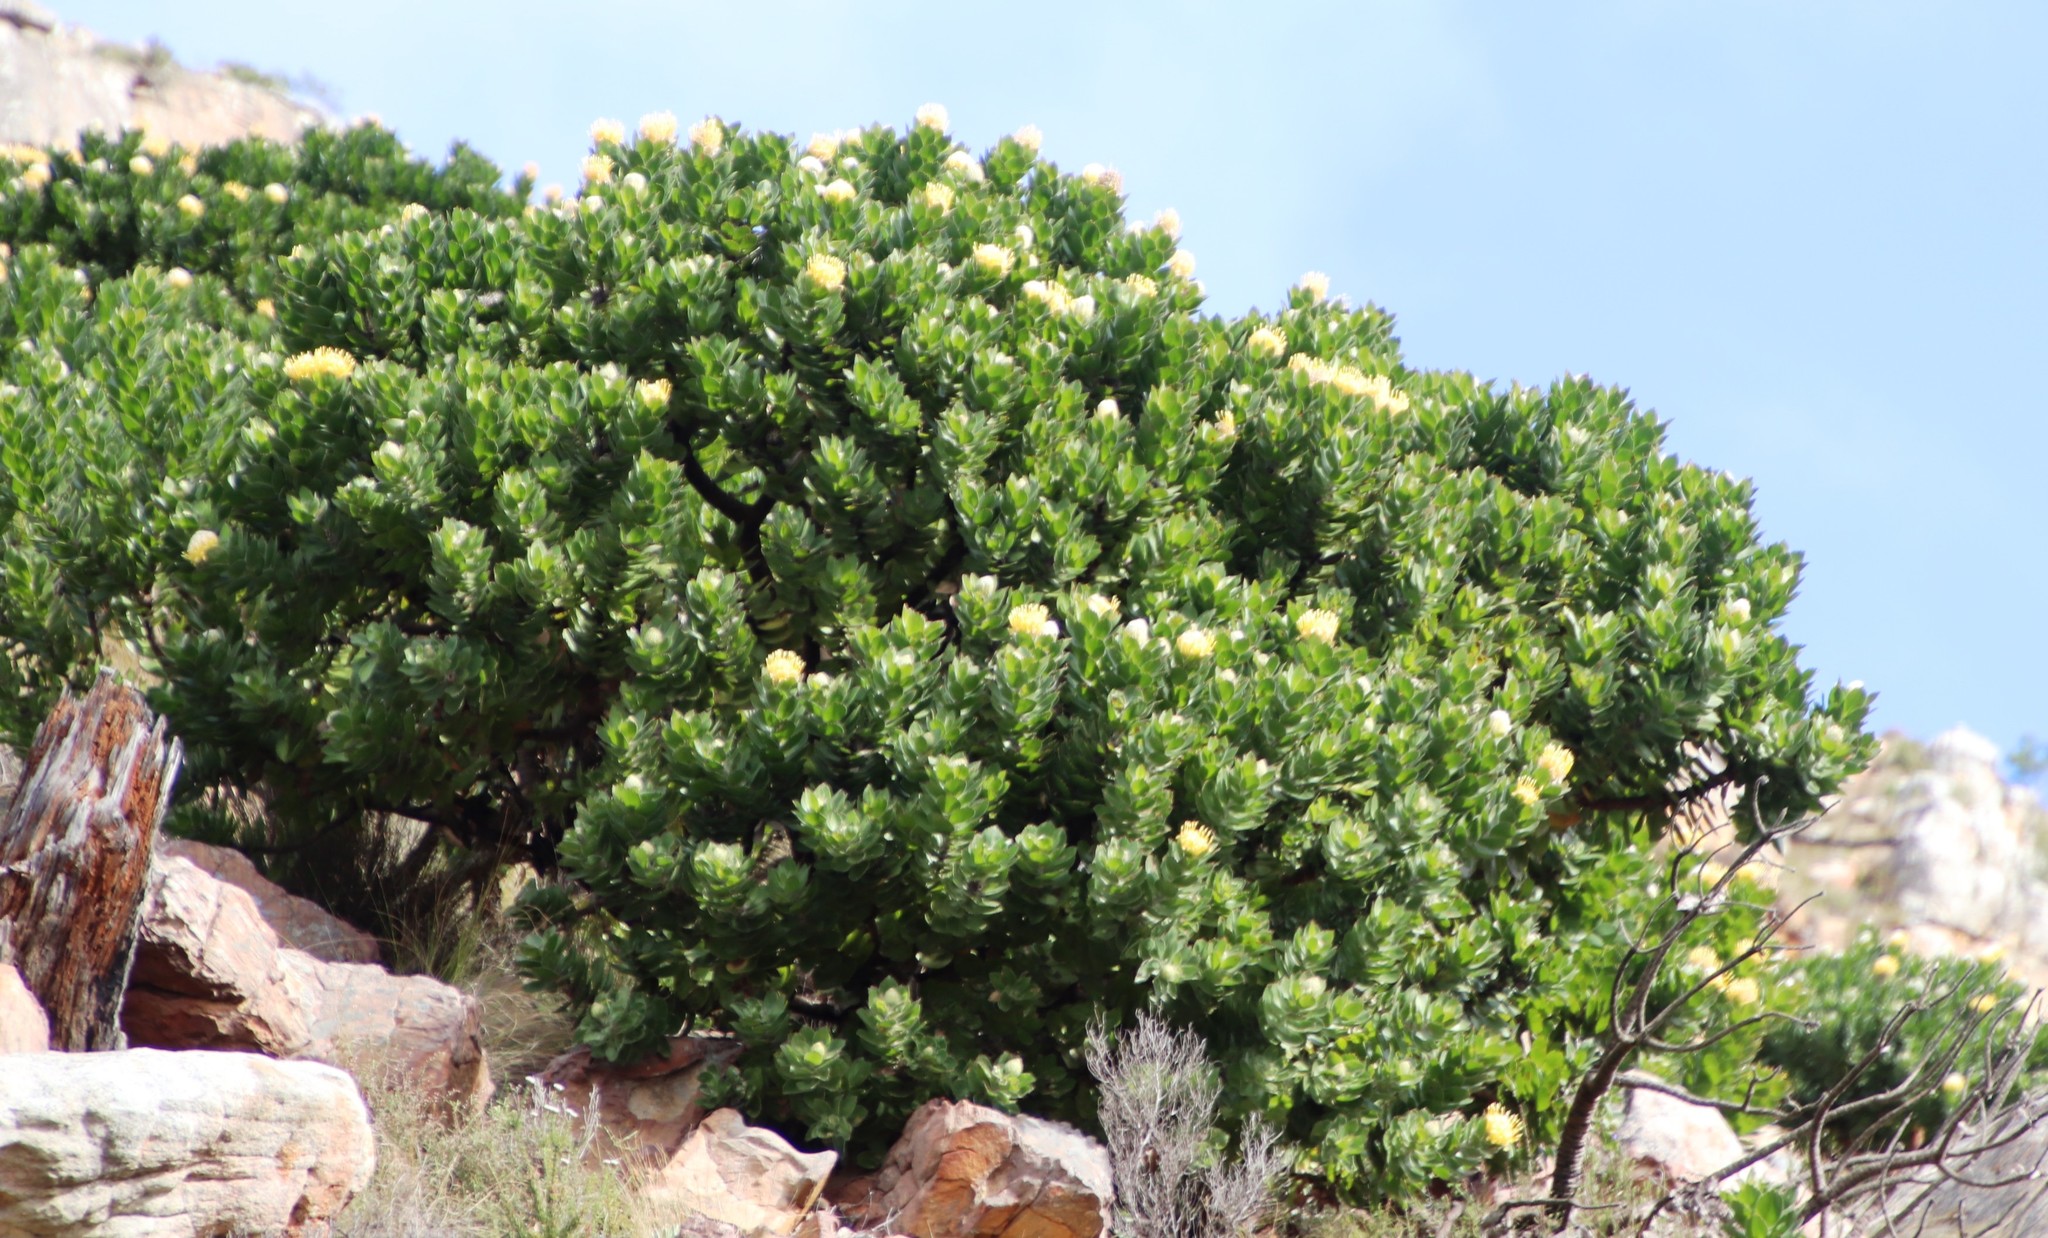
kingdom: Plantae
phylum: Tracheophyta
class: Magnoliopsida
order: Proteales
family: Proteaceae
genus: Leucospermum
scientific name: Leucospermum conocarpodendron
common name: Tree pincushion
